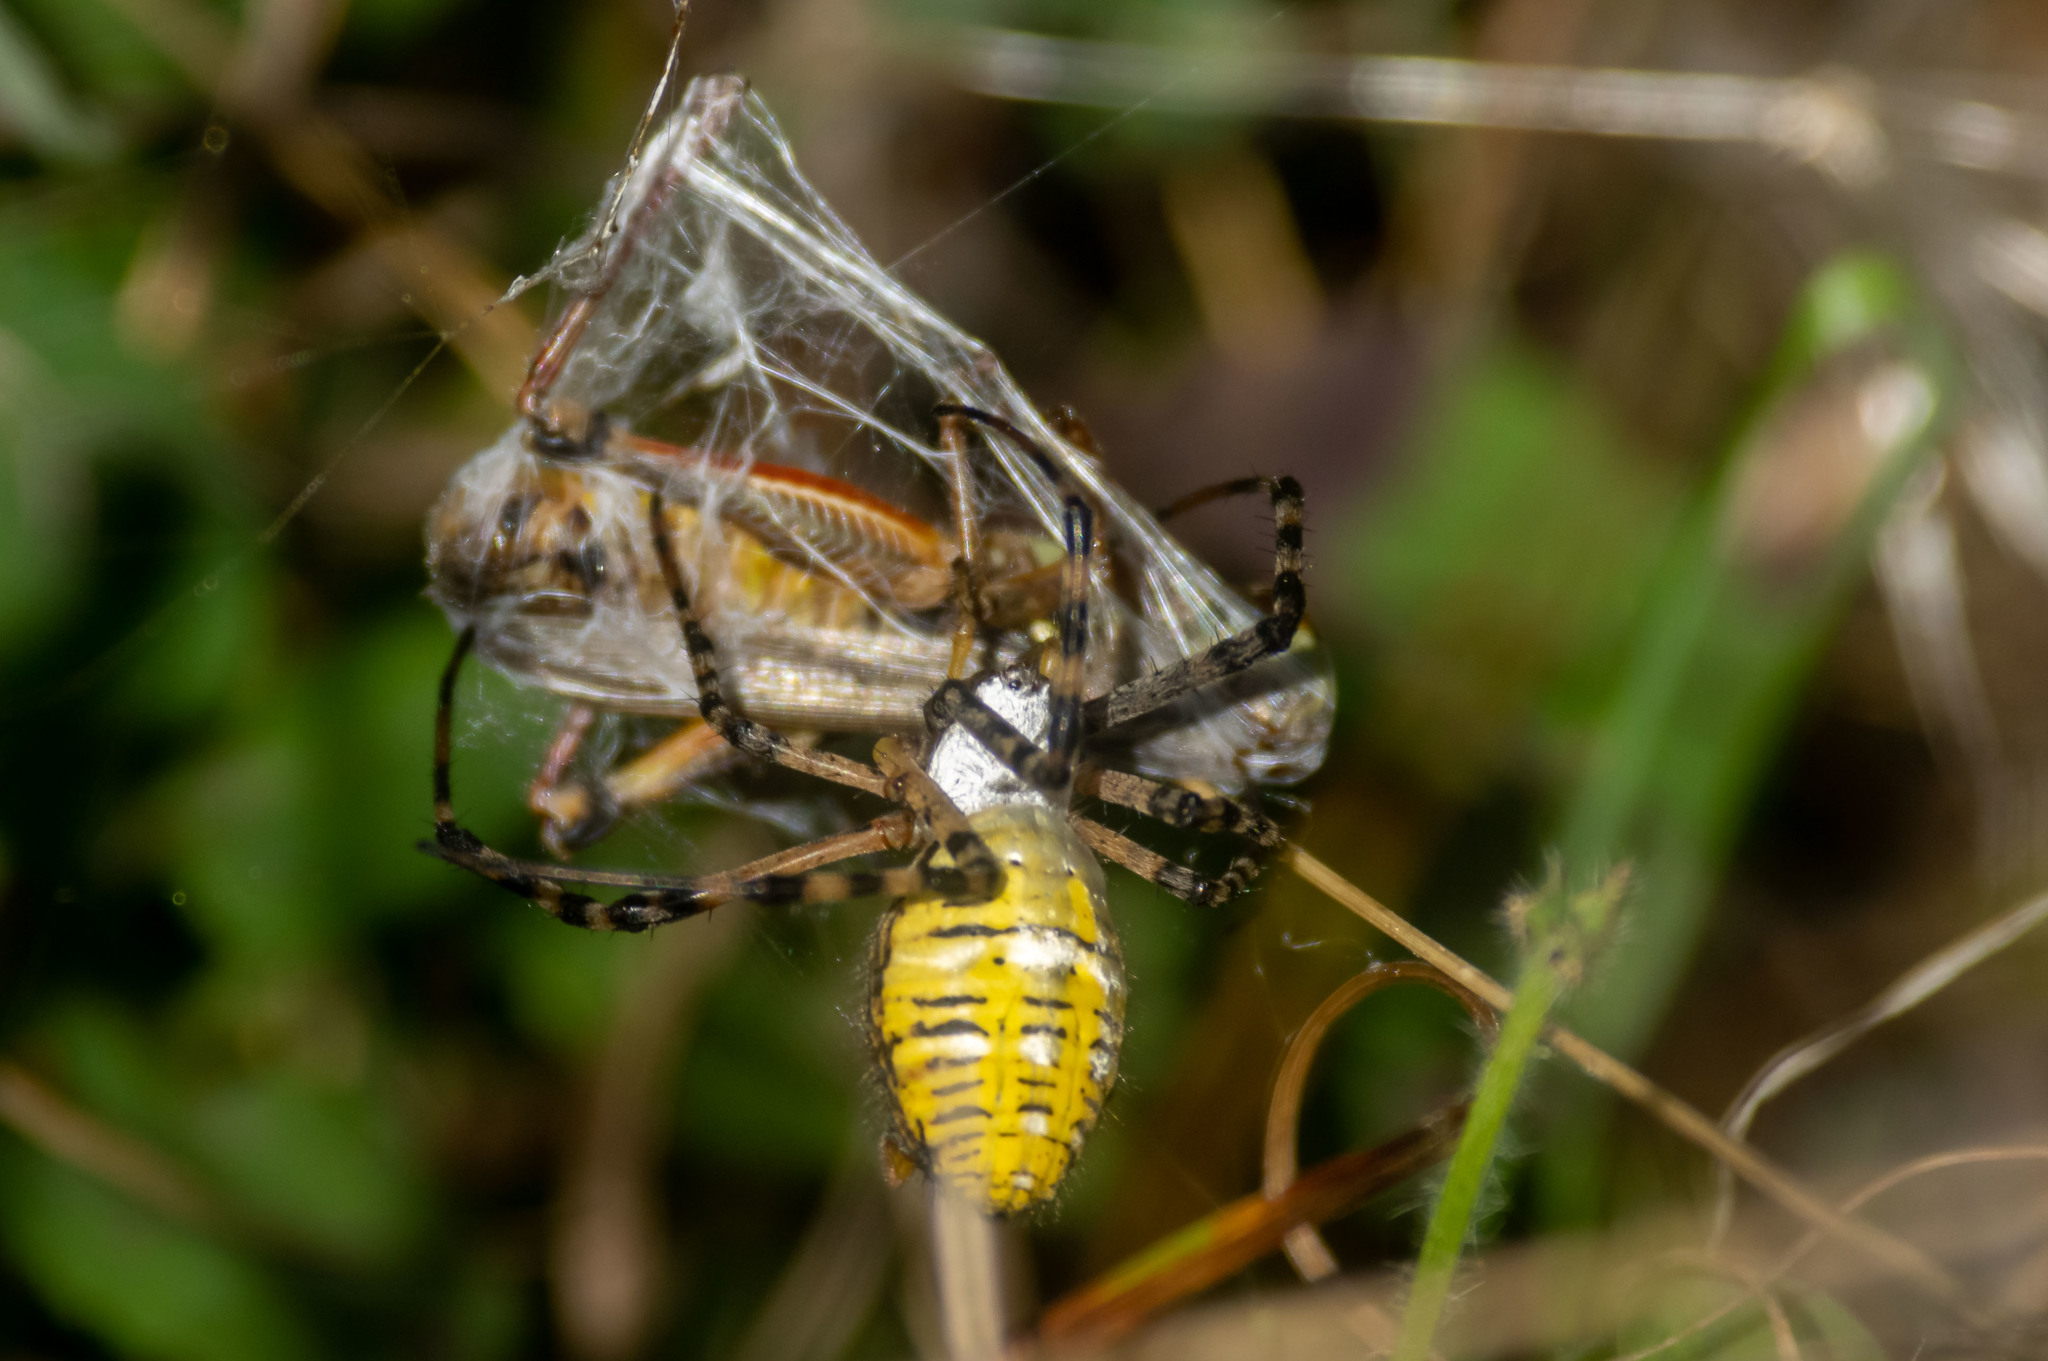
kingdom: Animalia
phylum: Arthropoda
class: Arachnida
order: Araneae
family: Araneidae
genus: Argiope
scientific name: Argiope trifasciata
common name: Banded garden spider
